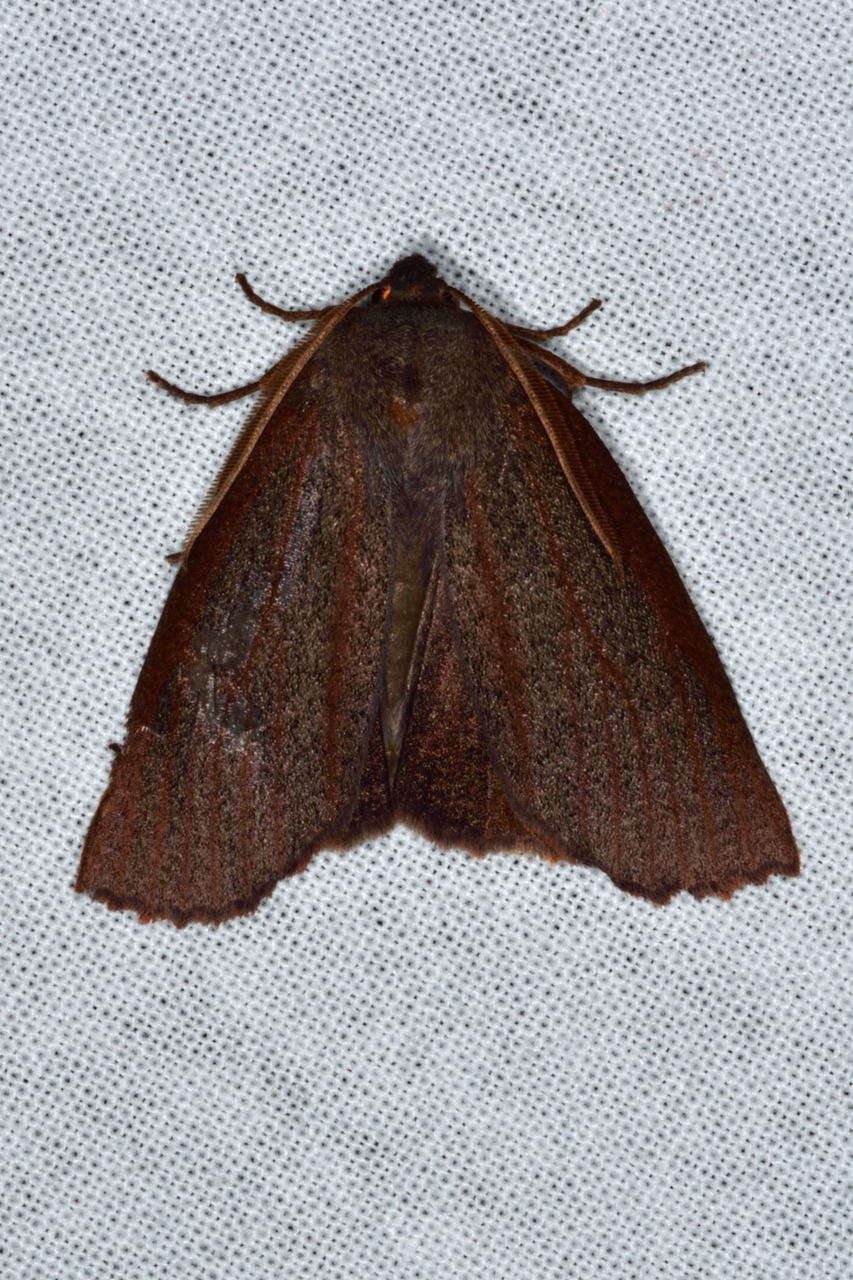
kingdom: Animalia
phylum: Arthropoda
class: Insecta
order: Lepidoptera
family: Geometridae
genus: Paralaea
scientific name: Paralaea porphyrinaria
